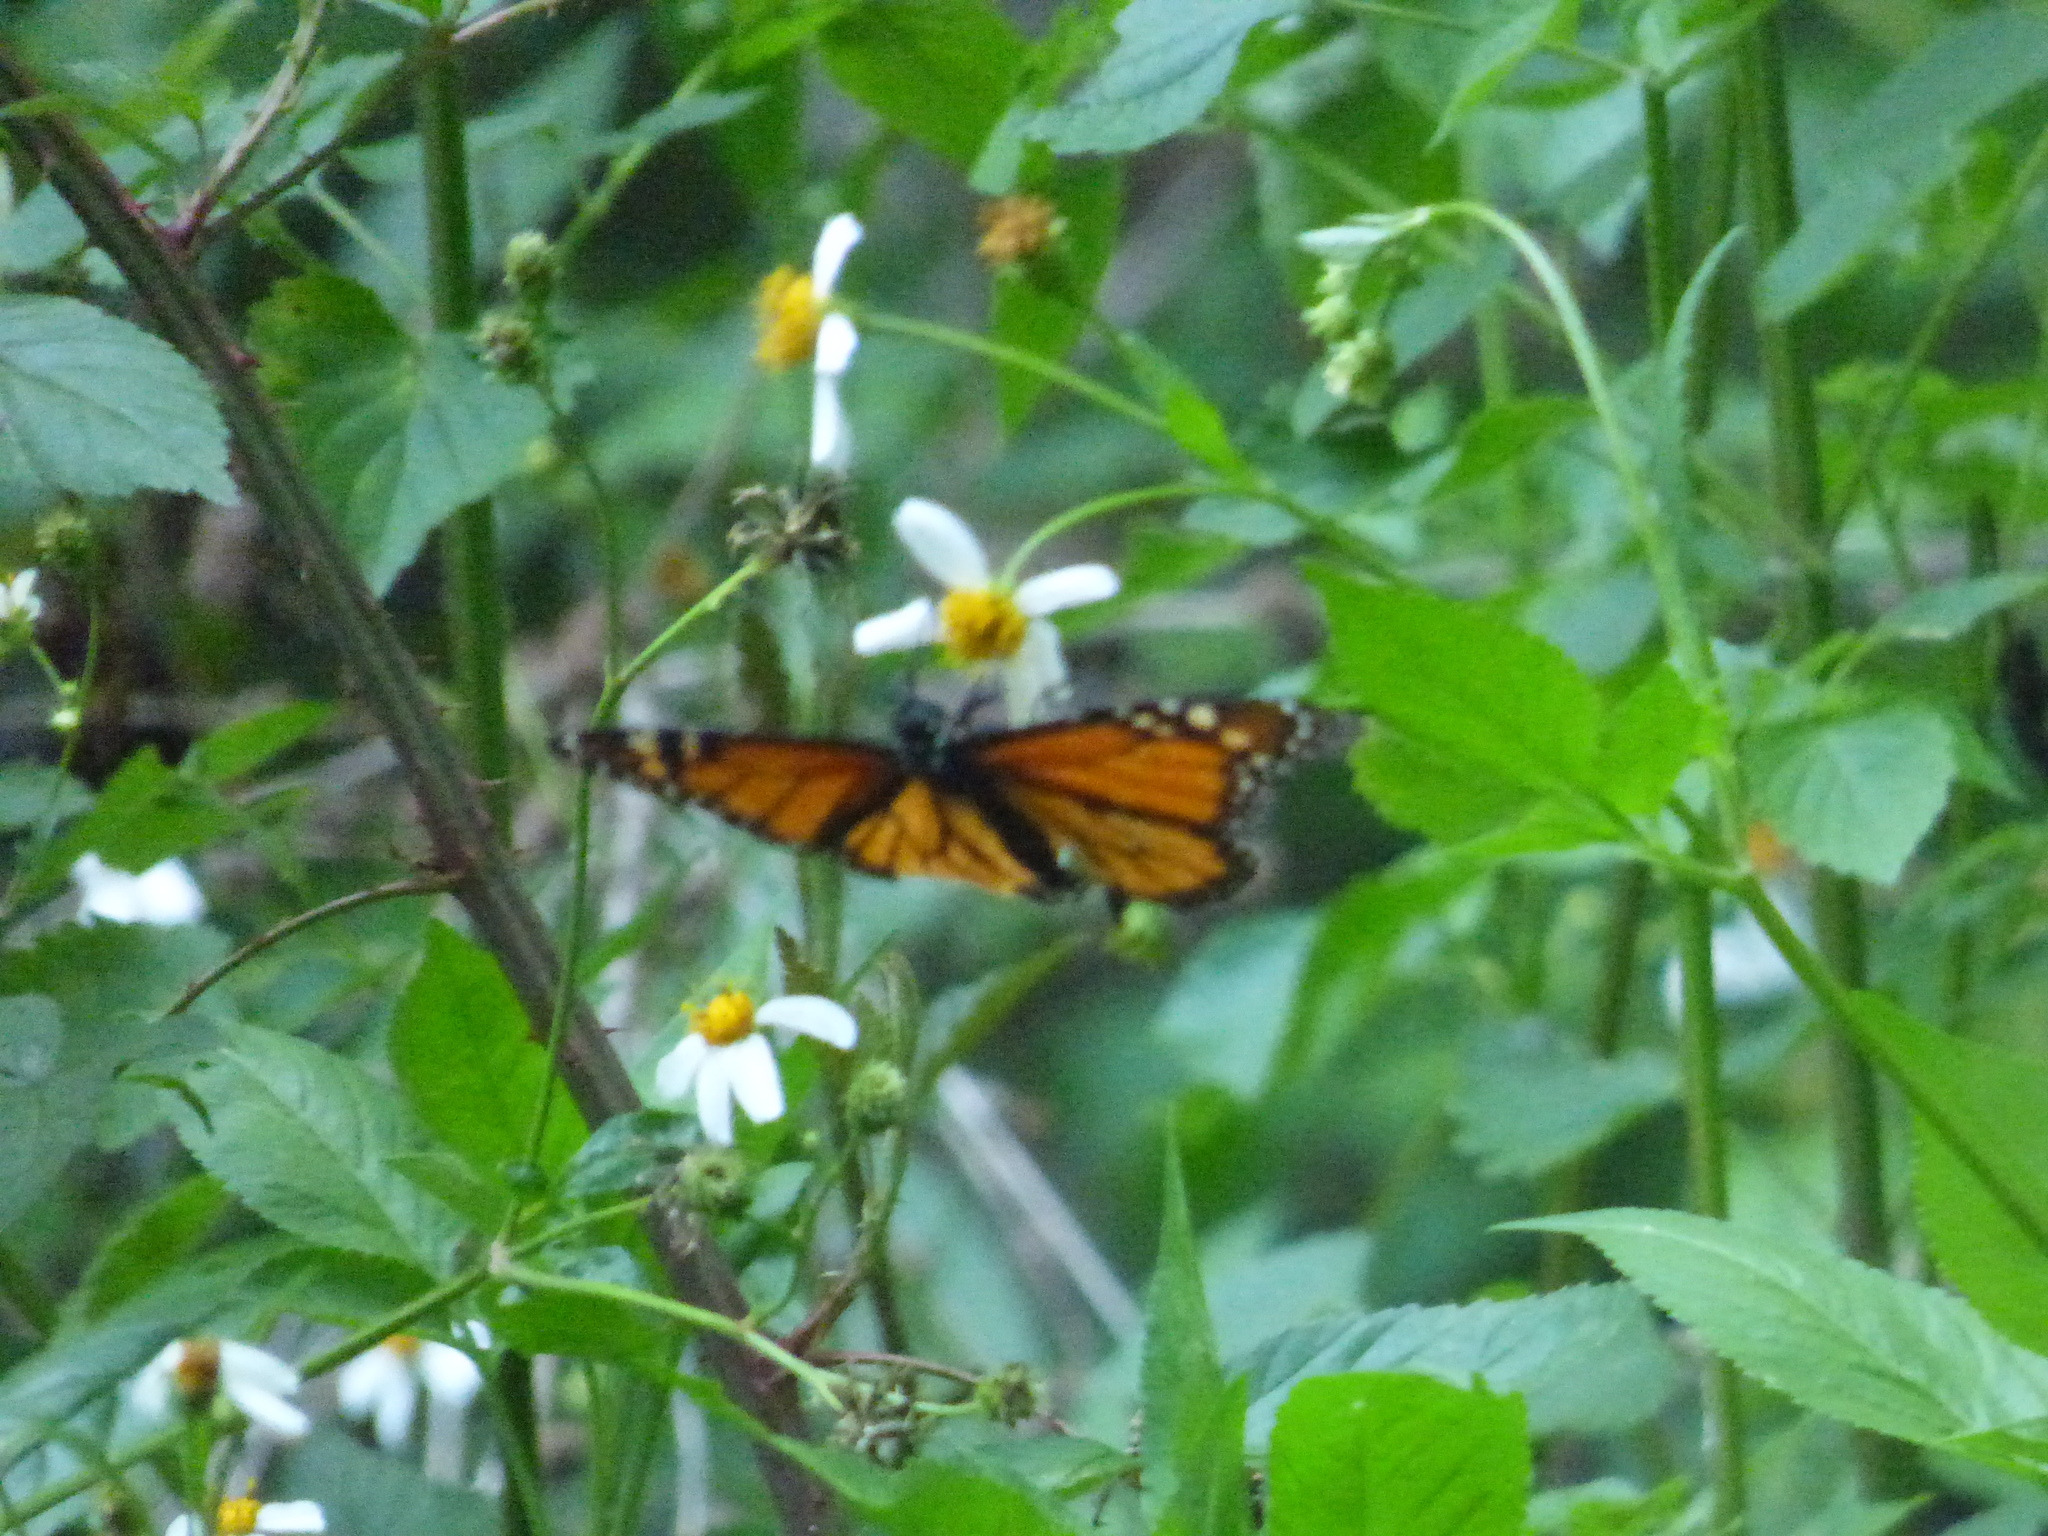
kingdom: Animalia
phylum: Arthropoda
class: Insecta
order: Lepidoptera
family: Nymphalidae
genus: Danaus
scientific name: Danaus plexippus
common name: Monarch
